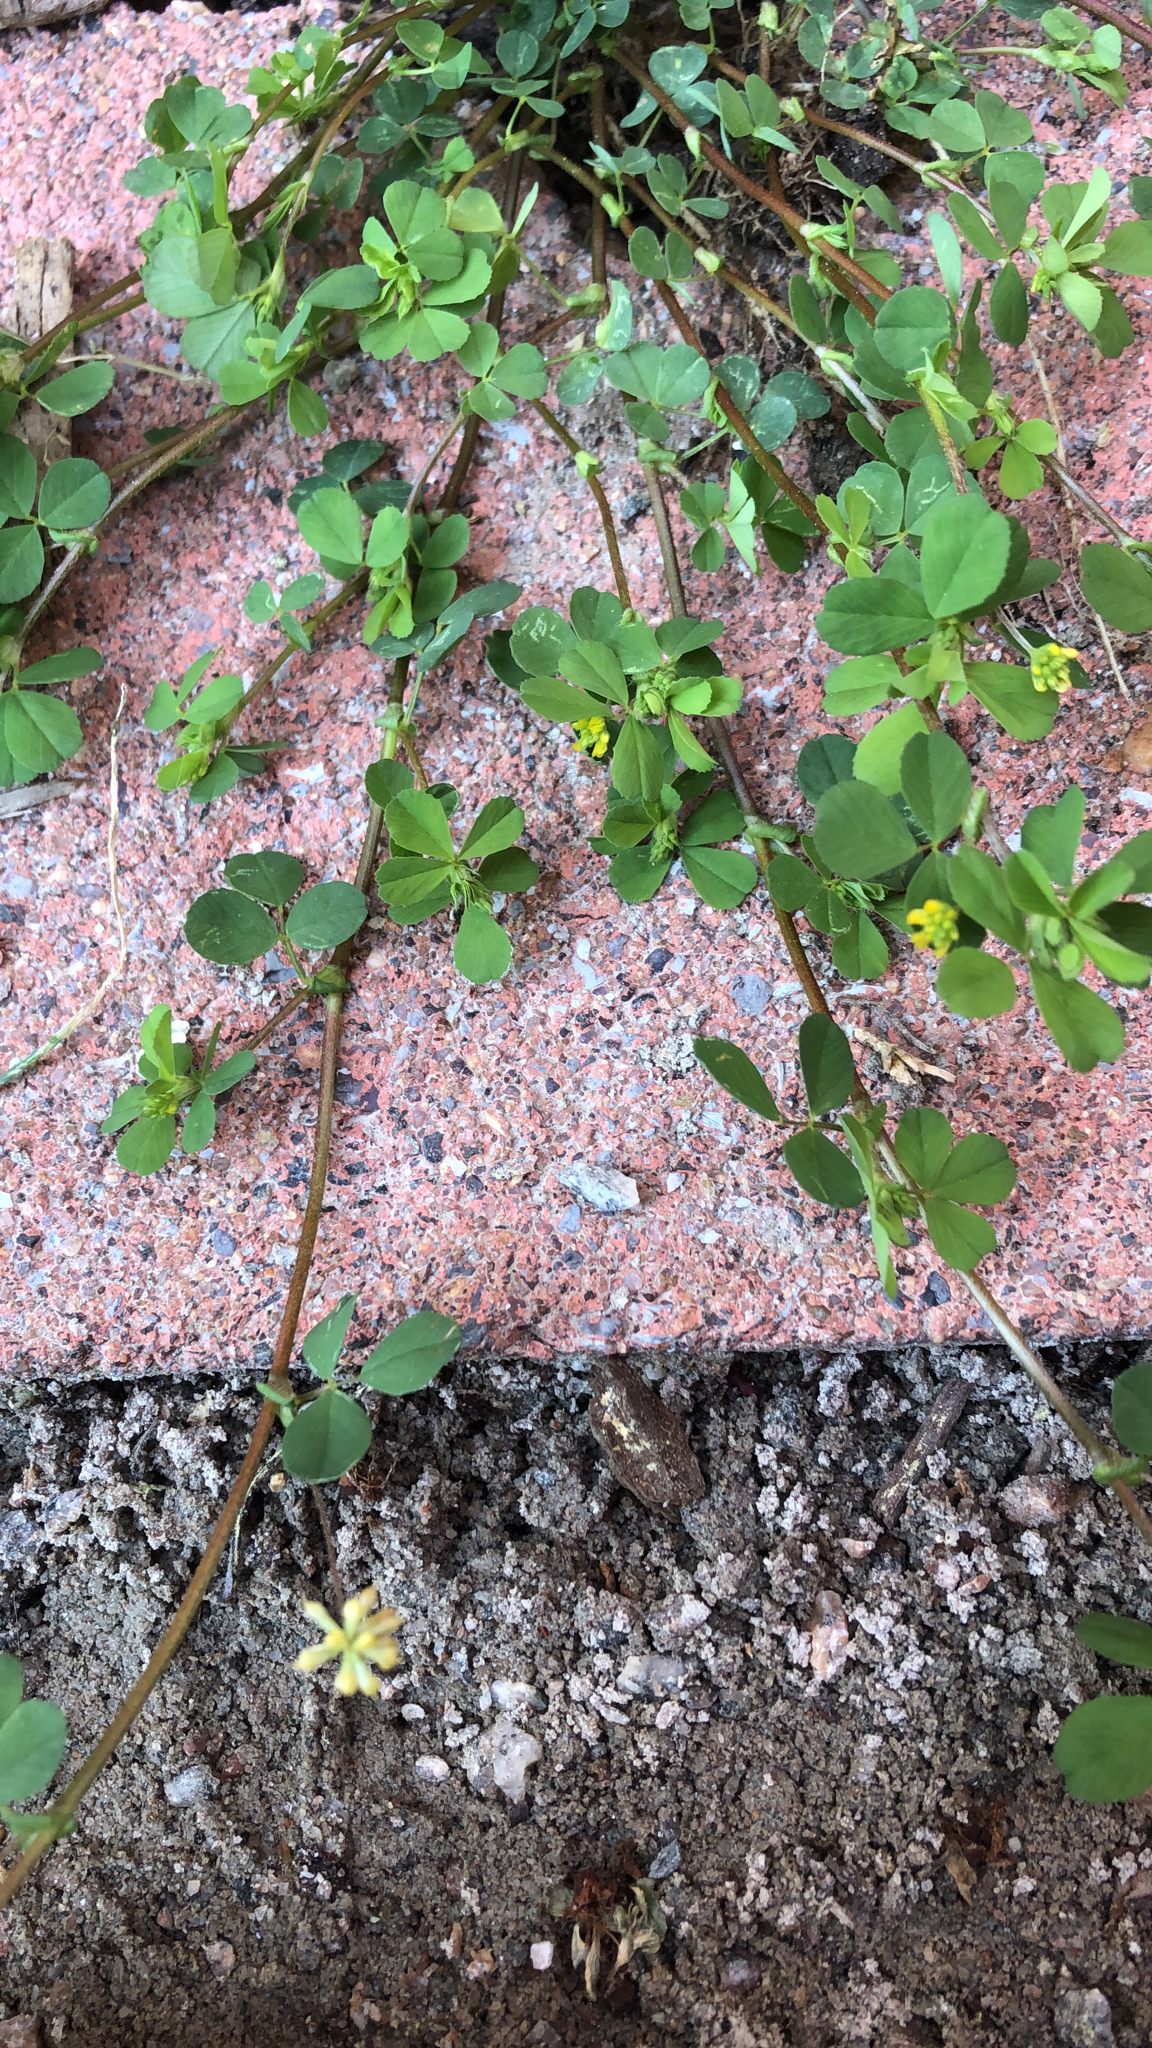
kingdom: Plantae
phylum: Tracheophyta
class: Magnoliopsida
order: Fabales
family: Fabaceae
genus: Trifolium
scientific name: Trifolium dubium
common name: Suckling clover
